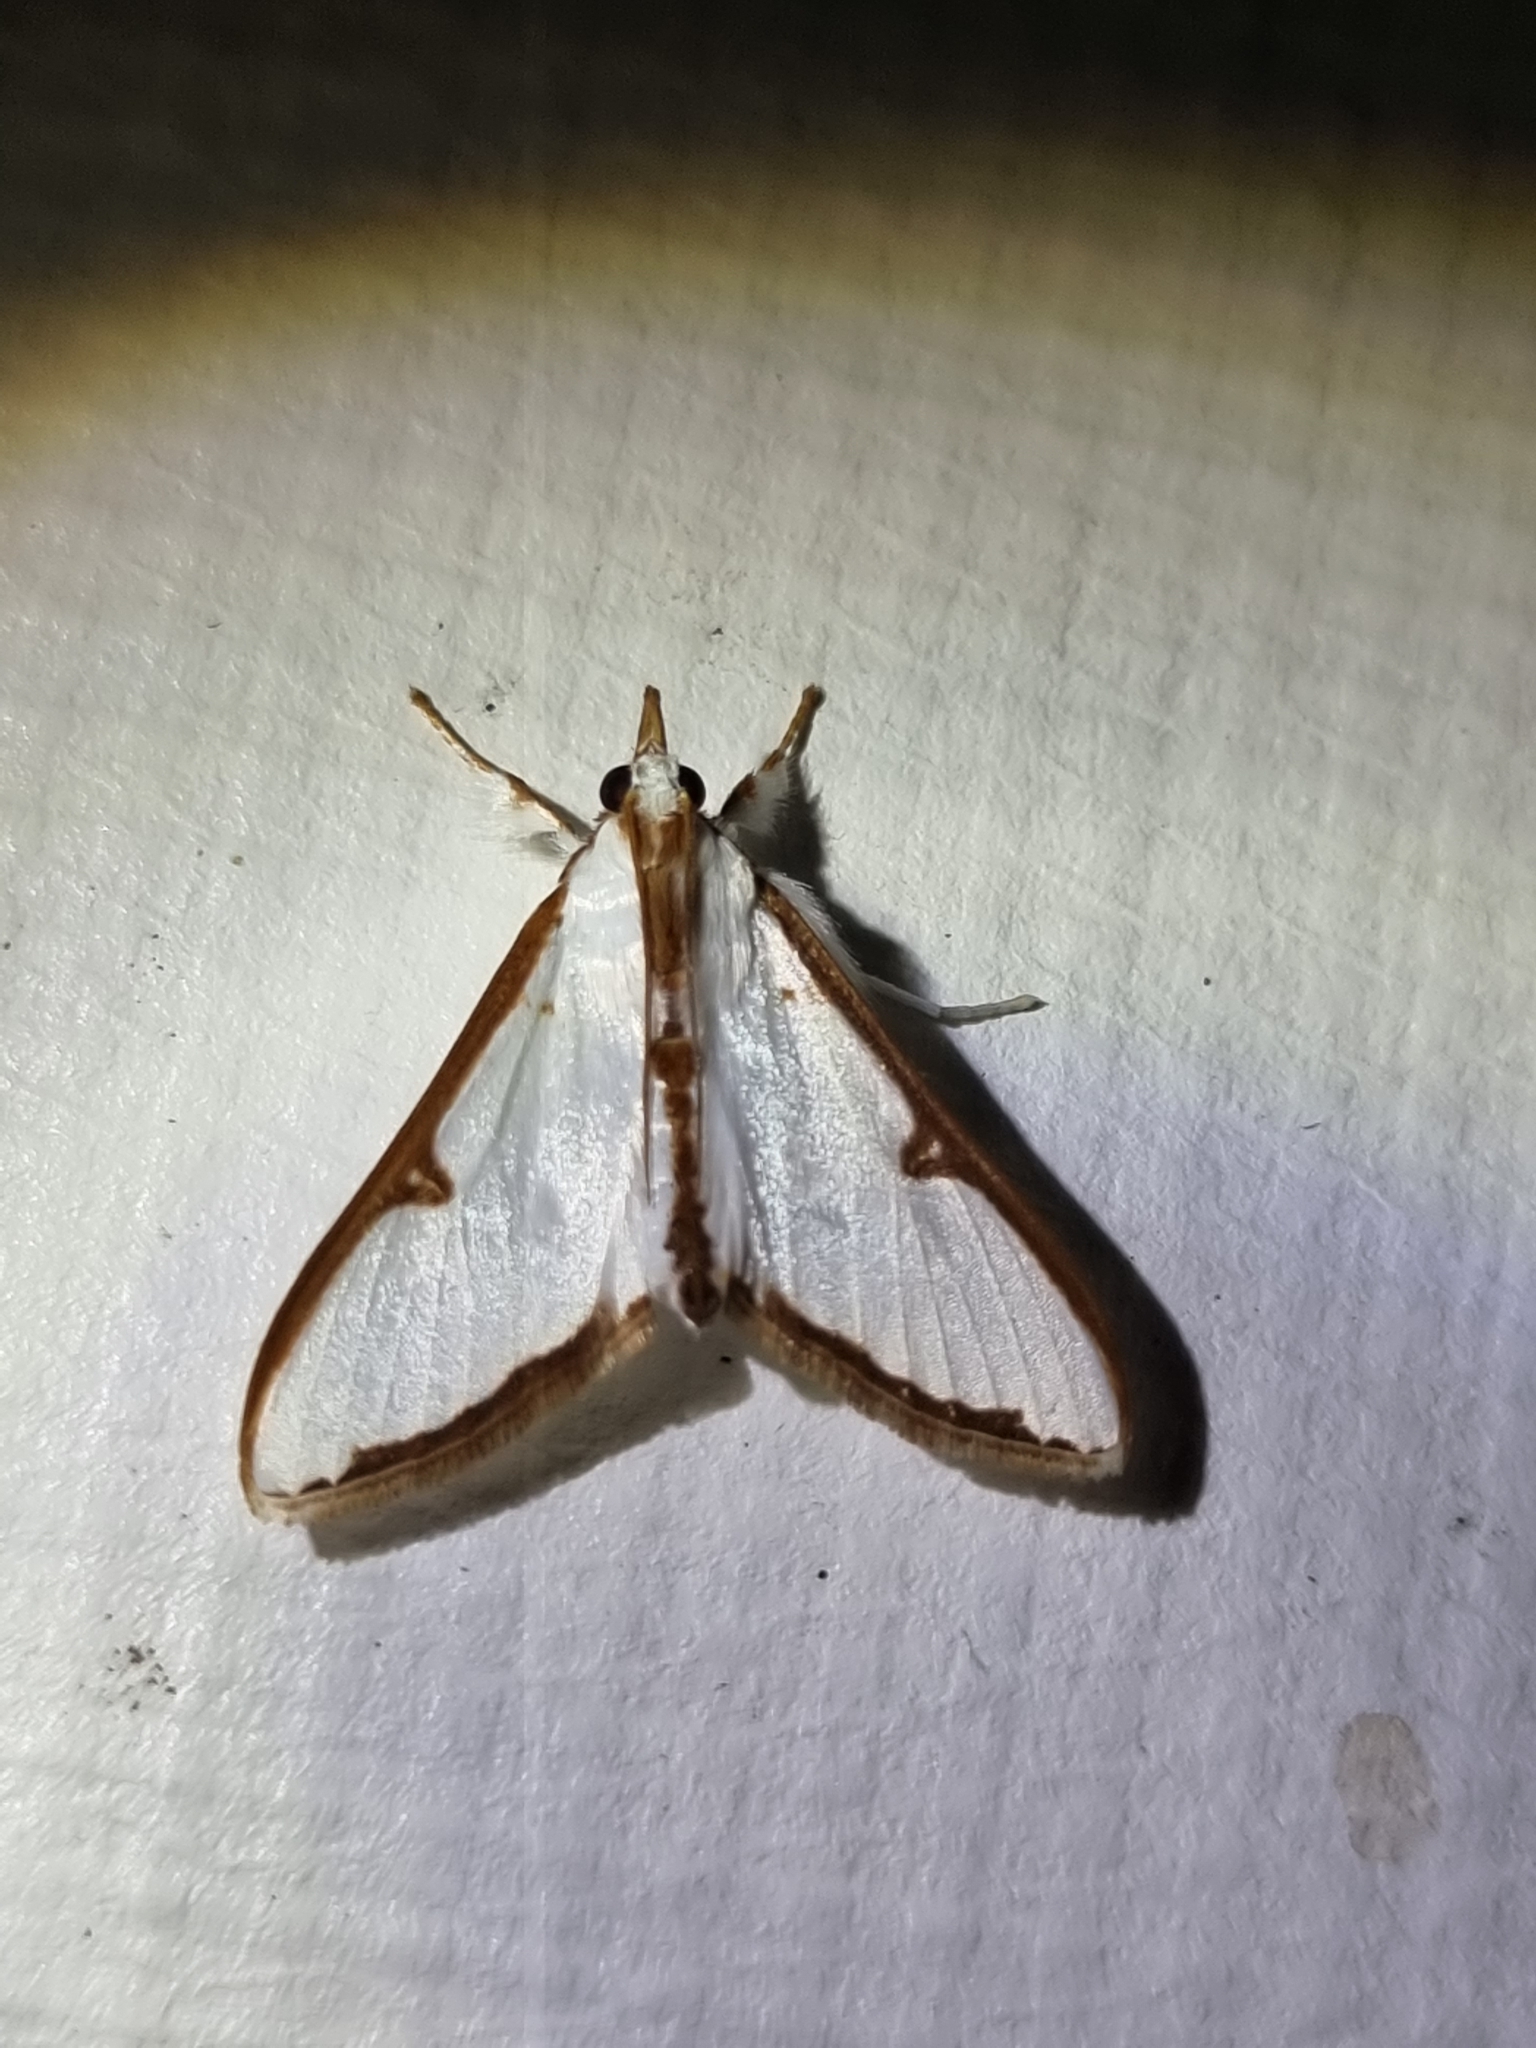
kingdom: Animalia
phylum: Arthropoda
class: Insecta
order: Lepidoptera
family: Crambidae
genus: Cirrhochrista
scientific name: Cirrhochrista arcusalis
